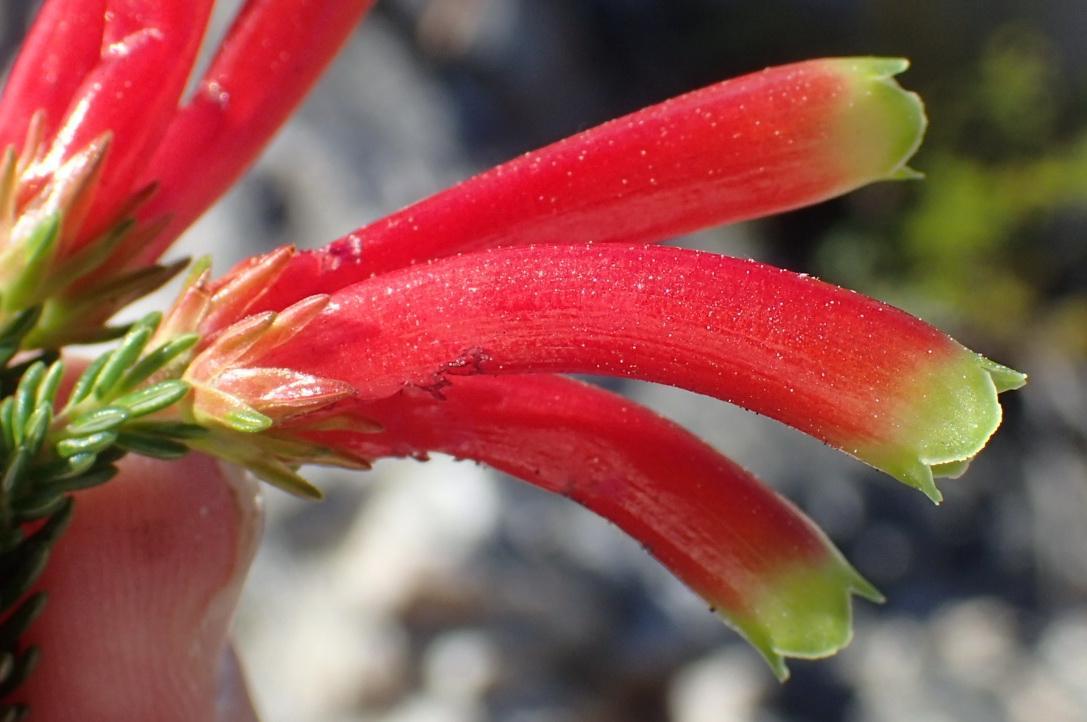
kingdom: Plantae
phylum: Tracheophyta
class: Magnoliopsida
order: Ericales
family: Ericaceae
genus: Erica
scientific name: Erica discolor
